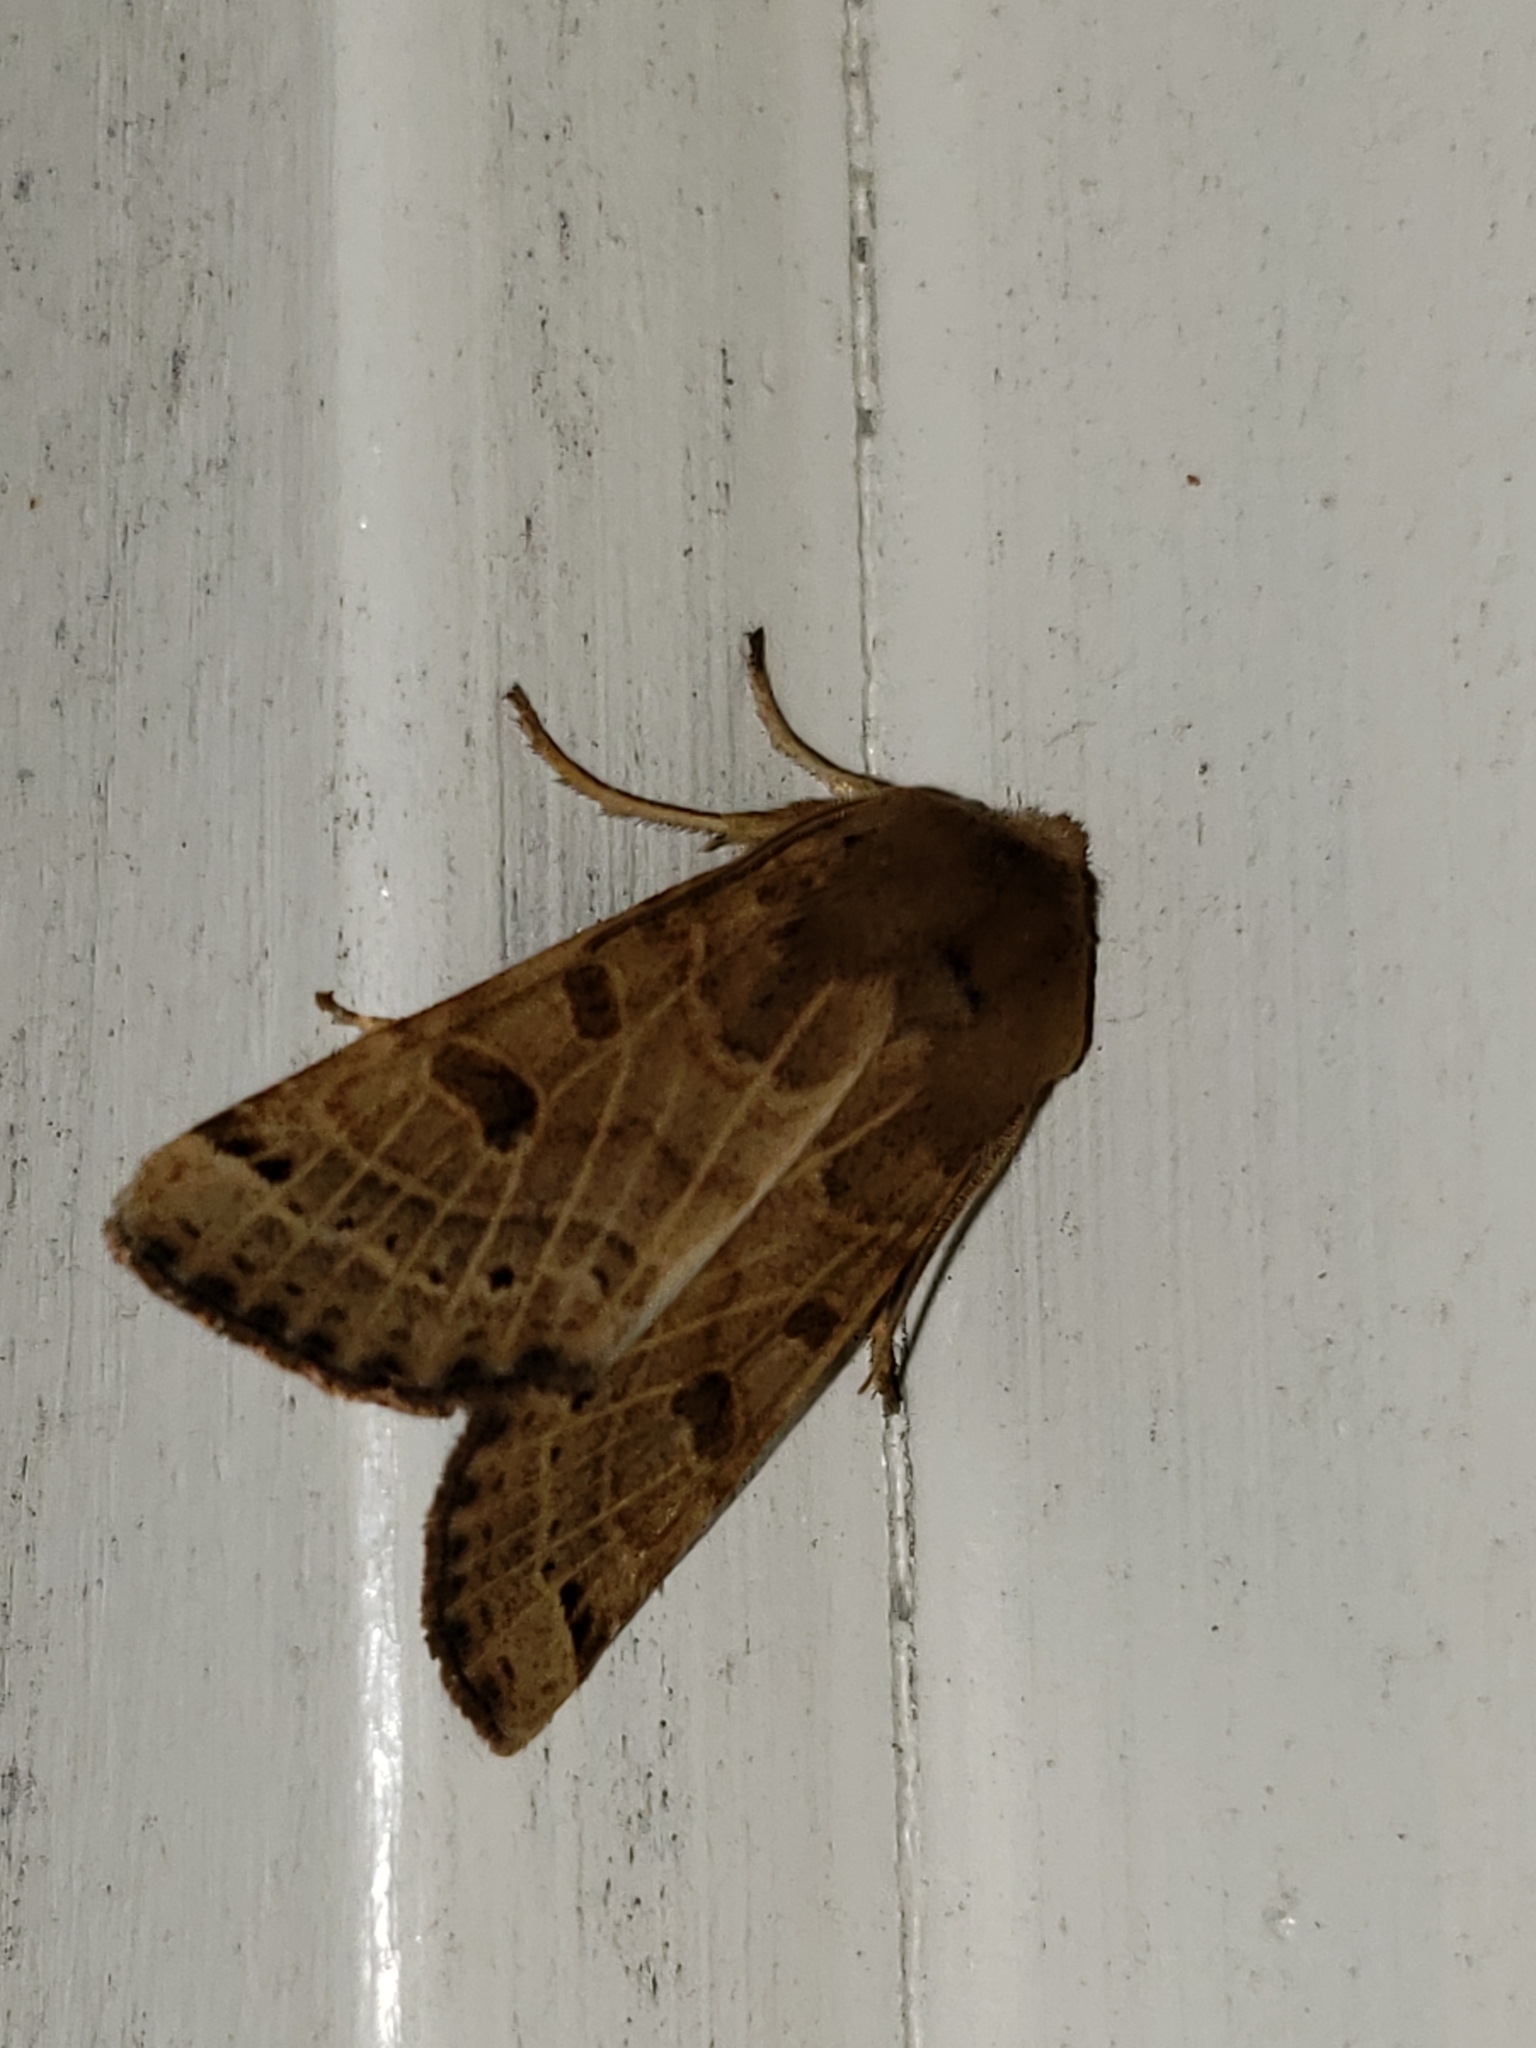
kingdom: Animalia
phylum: Arthropoda
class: Insecta
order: Lepidoptera
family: Noctuidae
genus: Agrochola
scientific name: Agrochola lunosa
